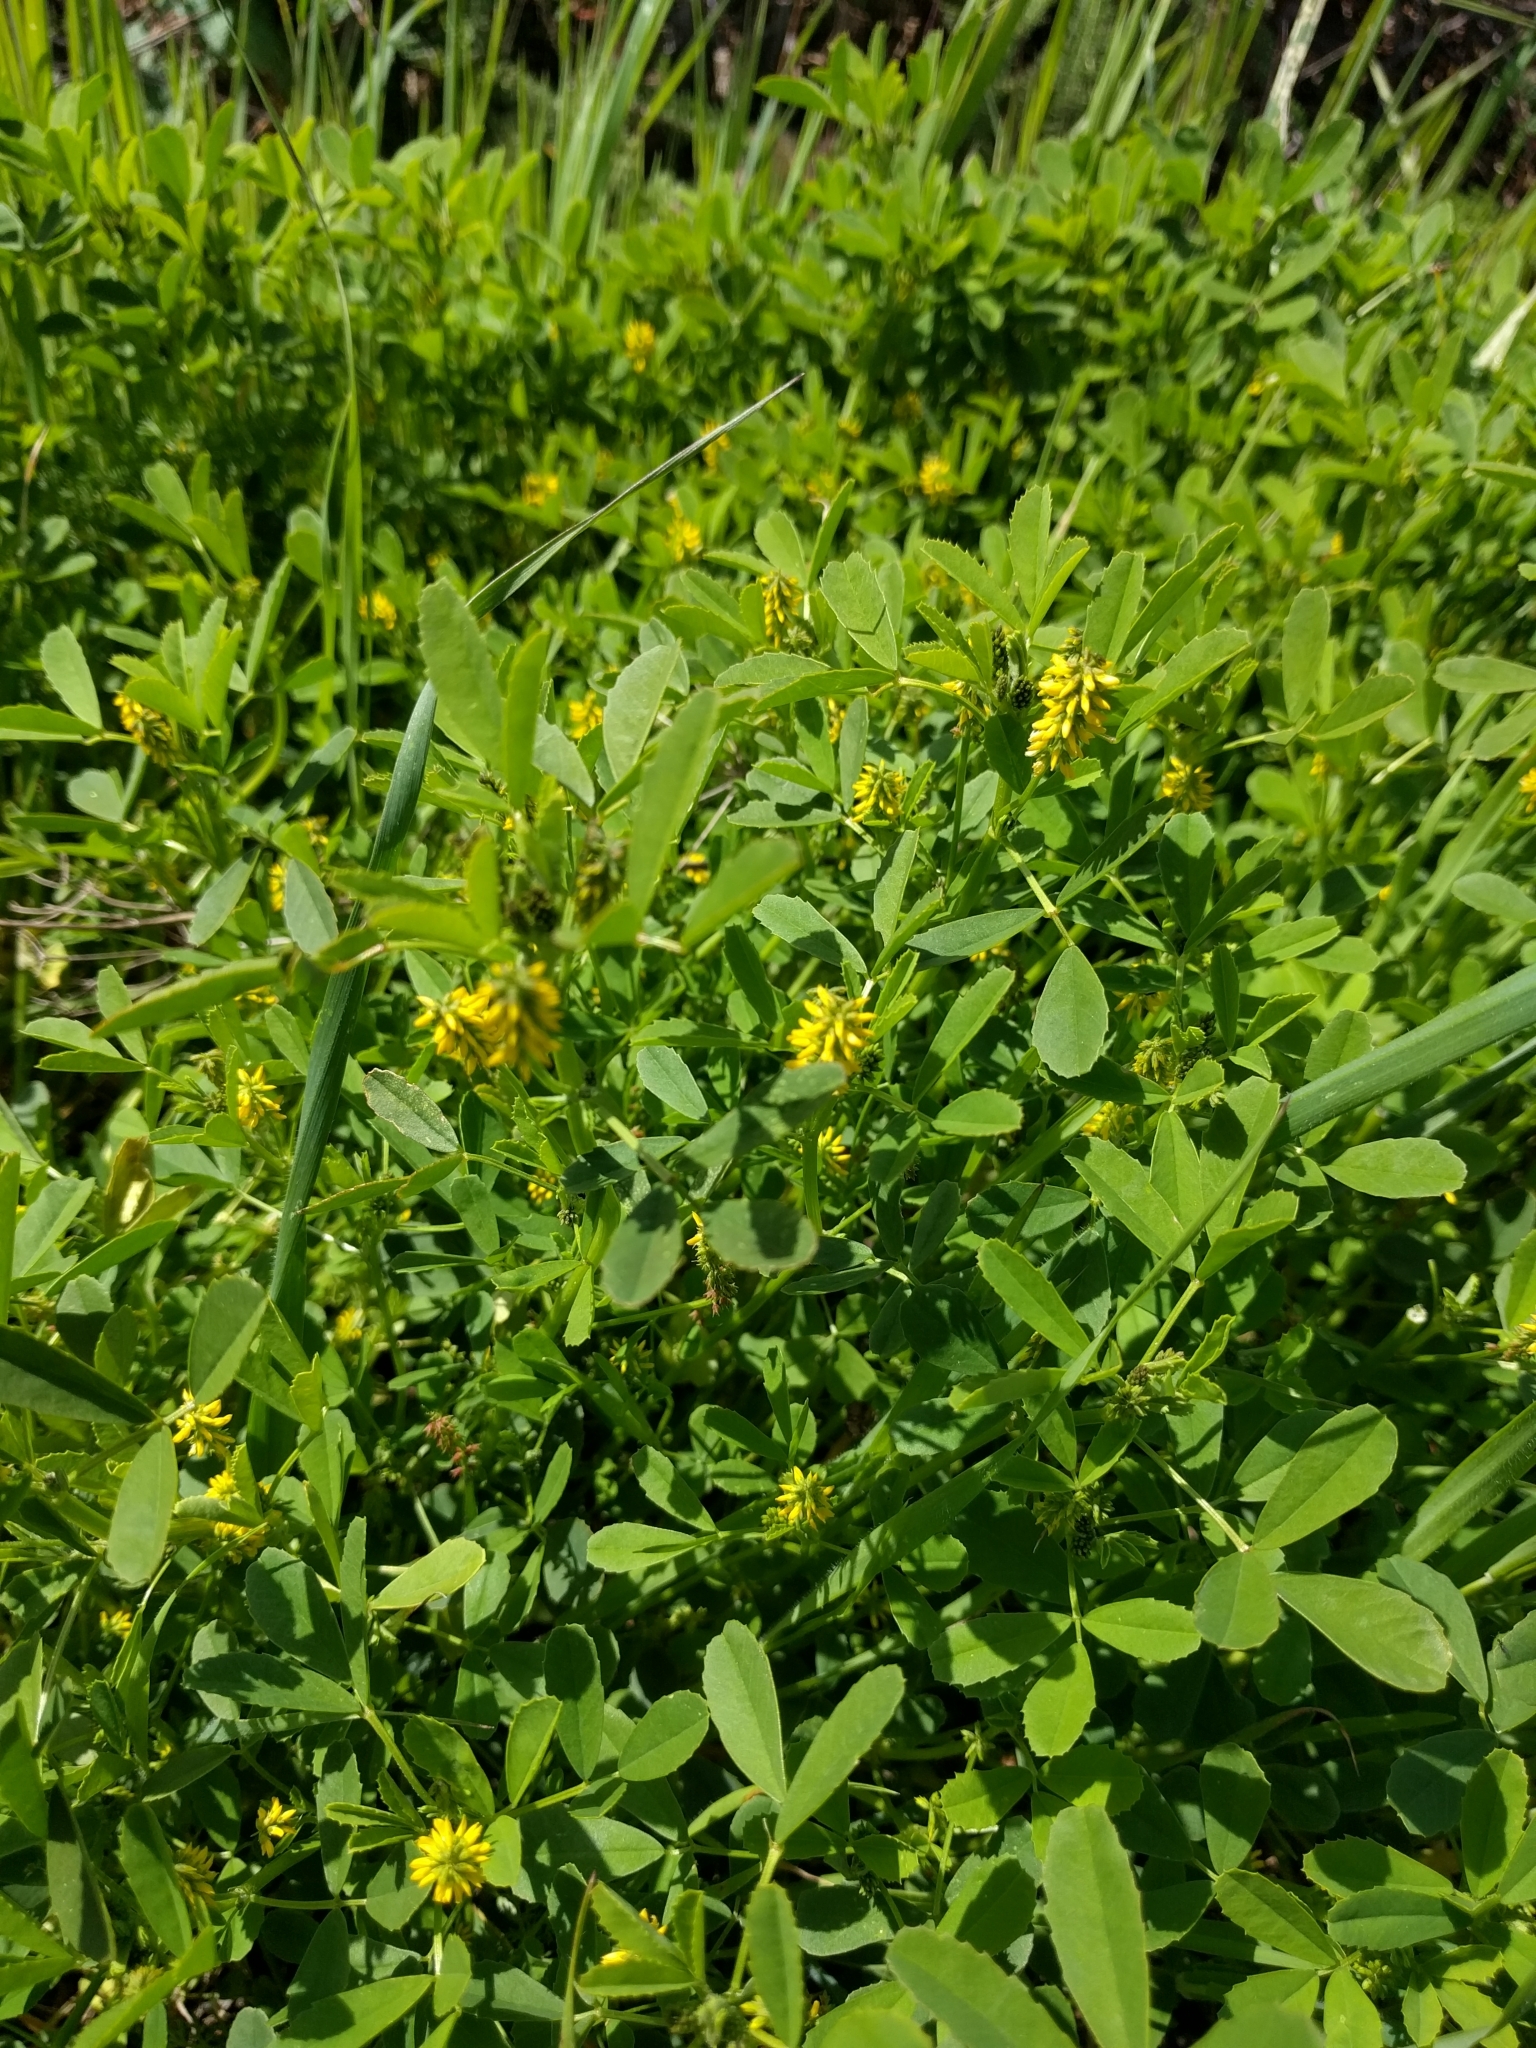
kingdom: Plantae
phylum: Tracheophyta
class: Magnoliopsida
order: Fabales
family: Fabaceae
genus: Melilotus
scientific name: Melilotus indicus
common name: Small melilot
